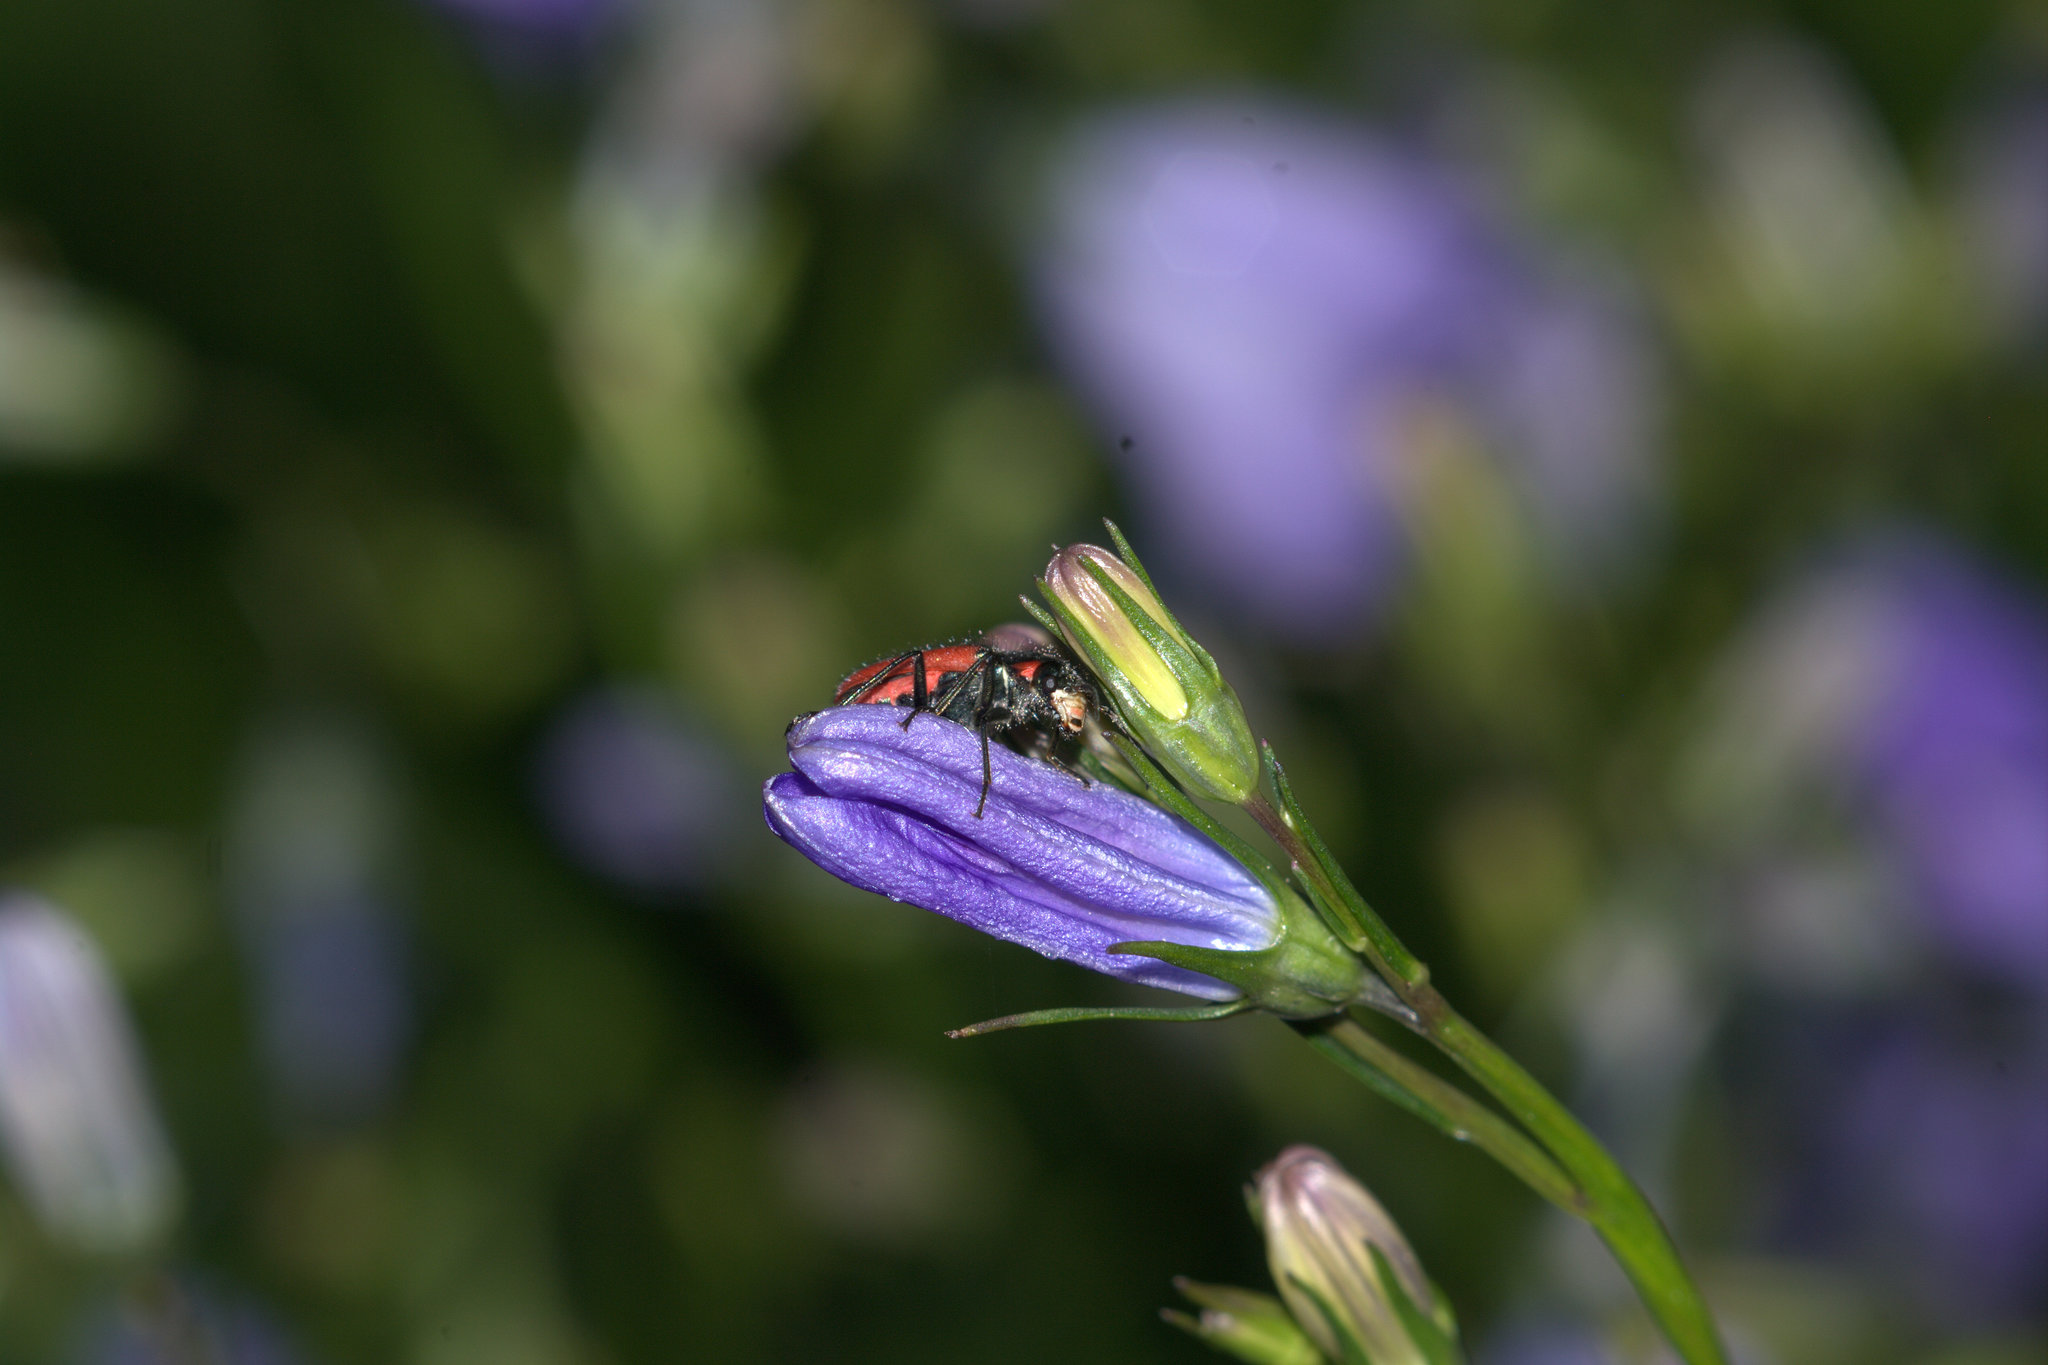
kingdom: Animalia
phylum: Arthropoda
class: Insecta
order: Coleoptera
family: Melyridae
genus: Malachius
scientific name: Malachius aeneus
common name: Scarlet malachite beetle
